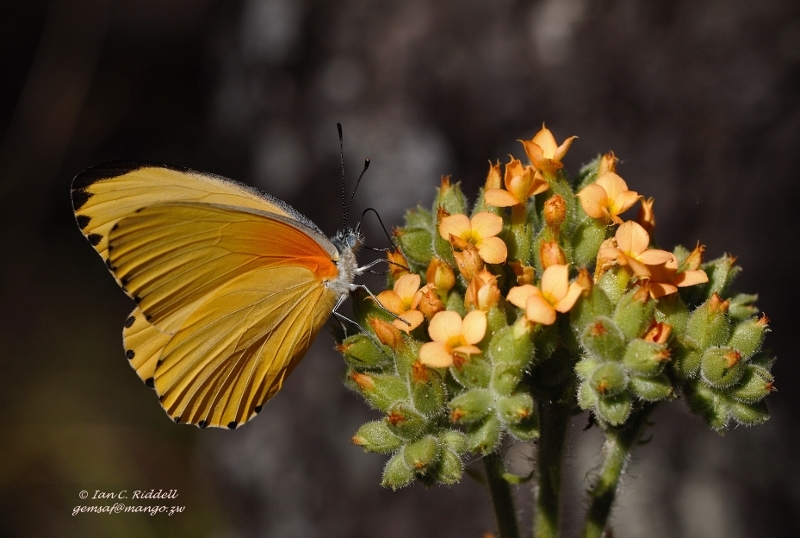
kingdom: Animalia
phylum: Arthropoda
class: Insecta
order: Lepidoptera
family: Pieridae
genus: Mylothris
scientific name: Mylothris agathina
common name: Eastern dotted border
